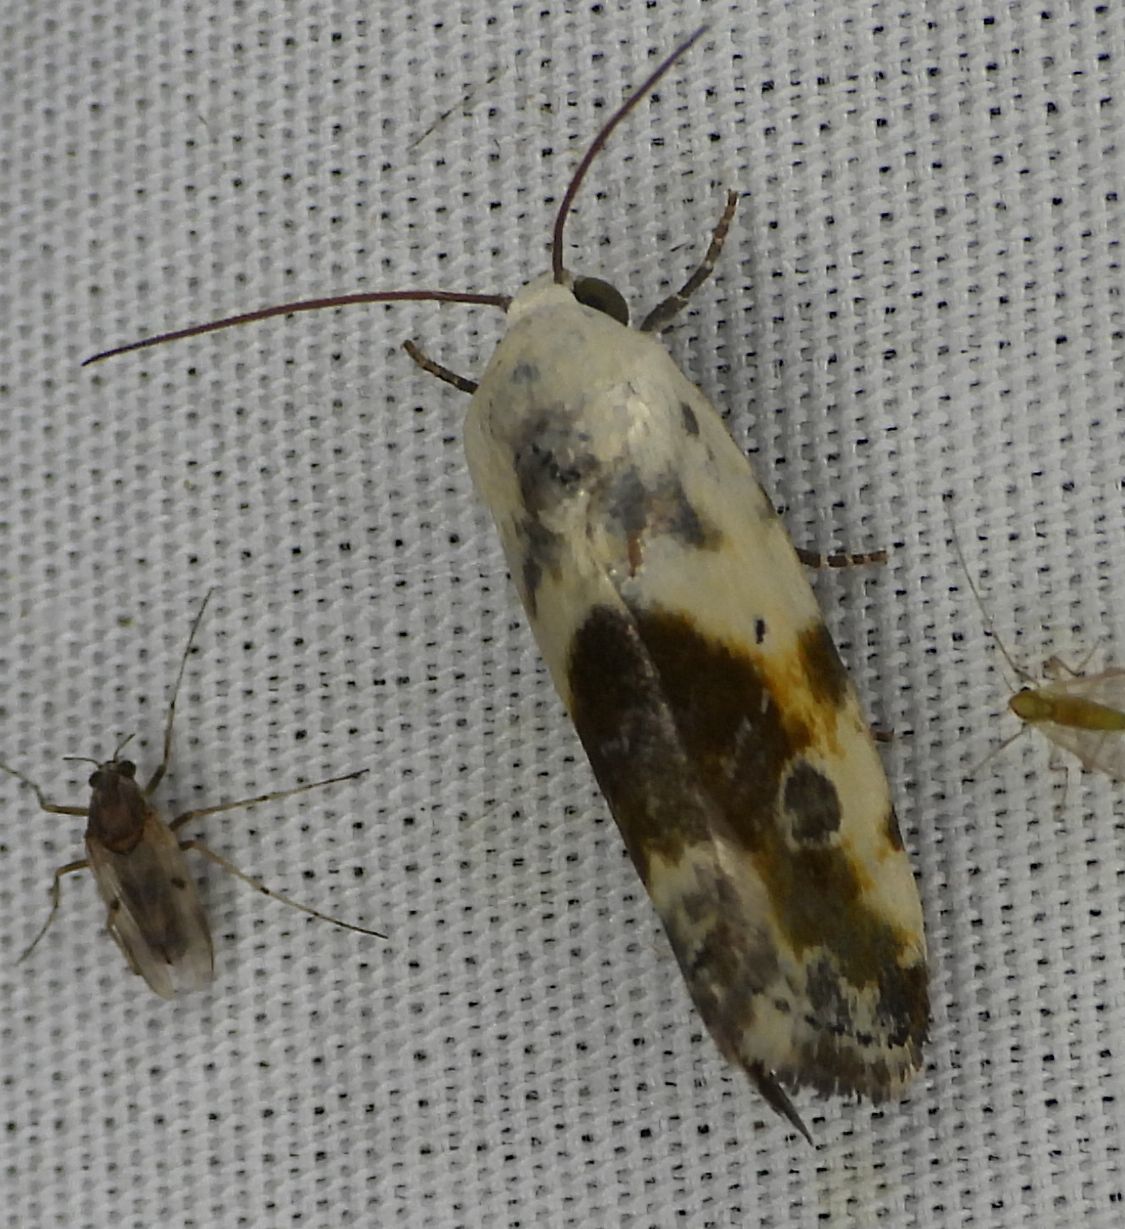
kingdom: Animalia
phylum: Arthropoda
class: Insecta
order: Lepidoptera
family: Noctuidae
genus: Acontia
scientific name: Acontia candefacta
